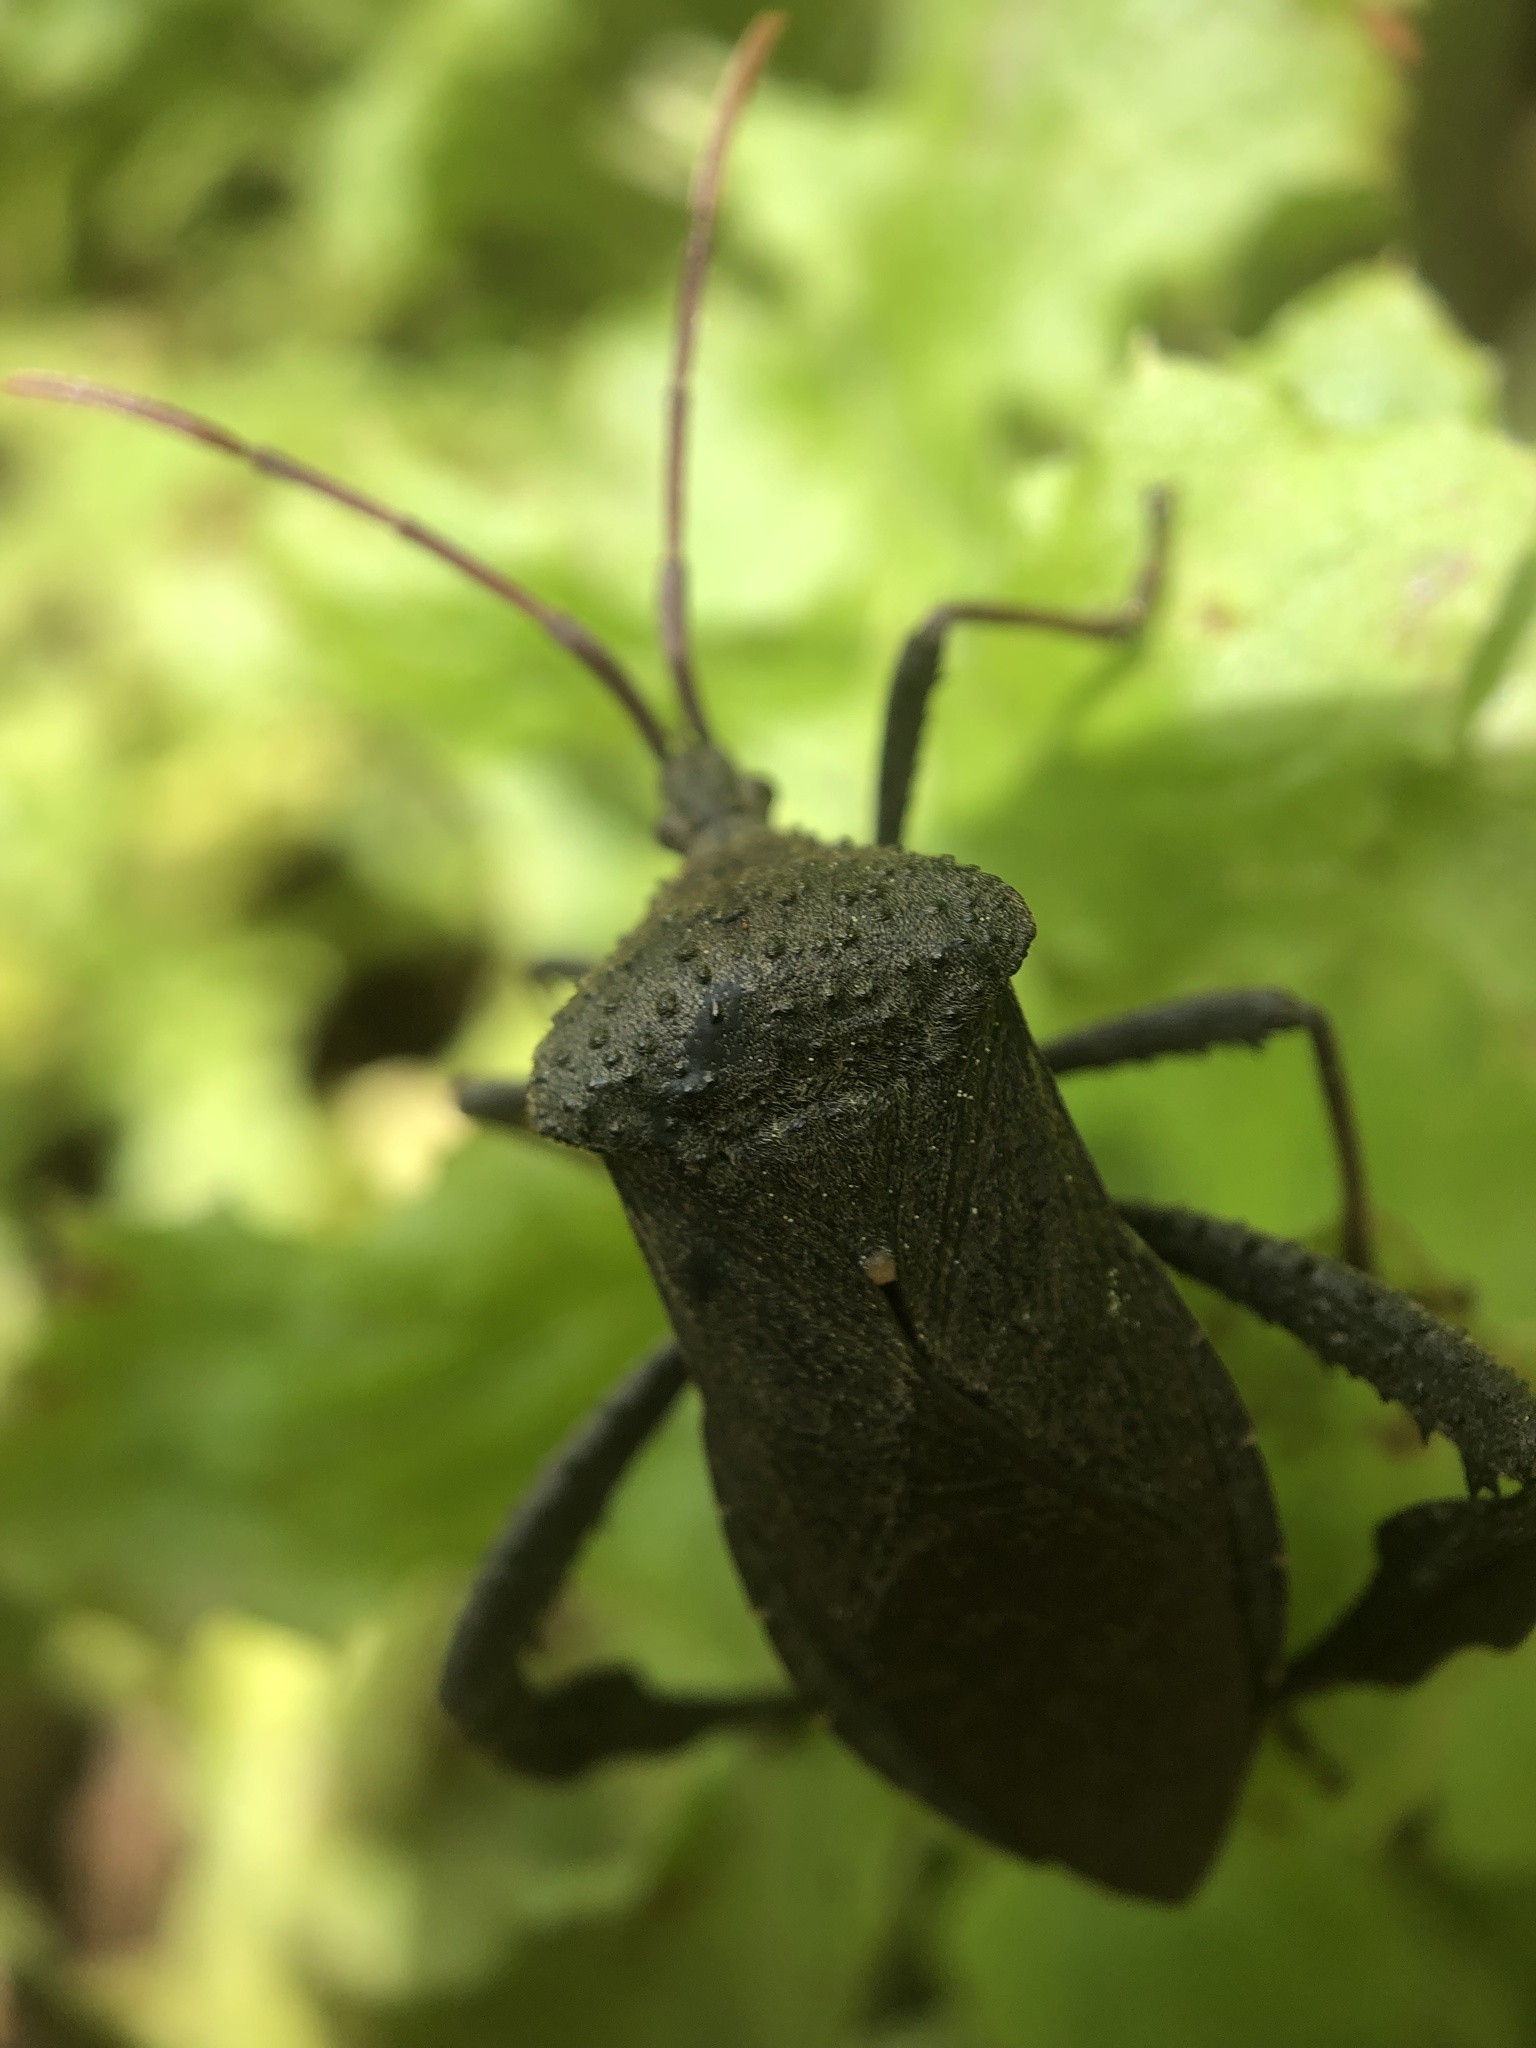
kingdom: Animalia
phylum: Arthropoda
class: Insecta
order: Hemiptera
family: Coreidae
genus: Acanthocephala
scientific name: Acanthocephala femorata
